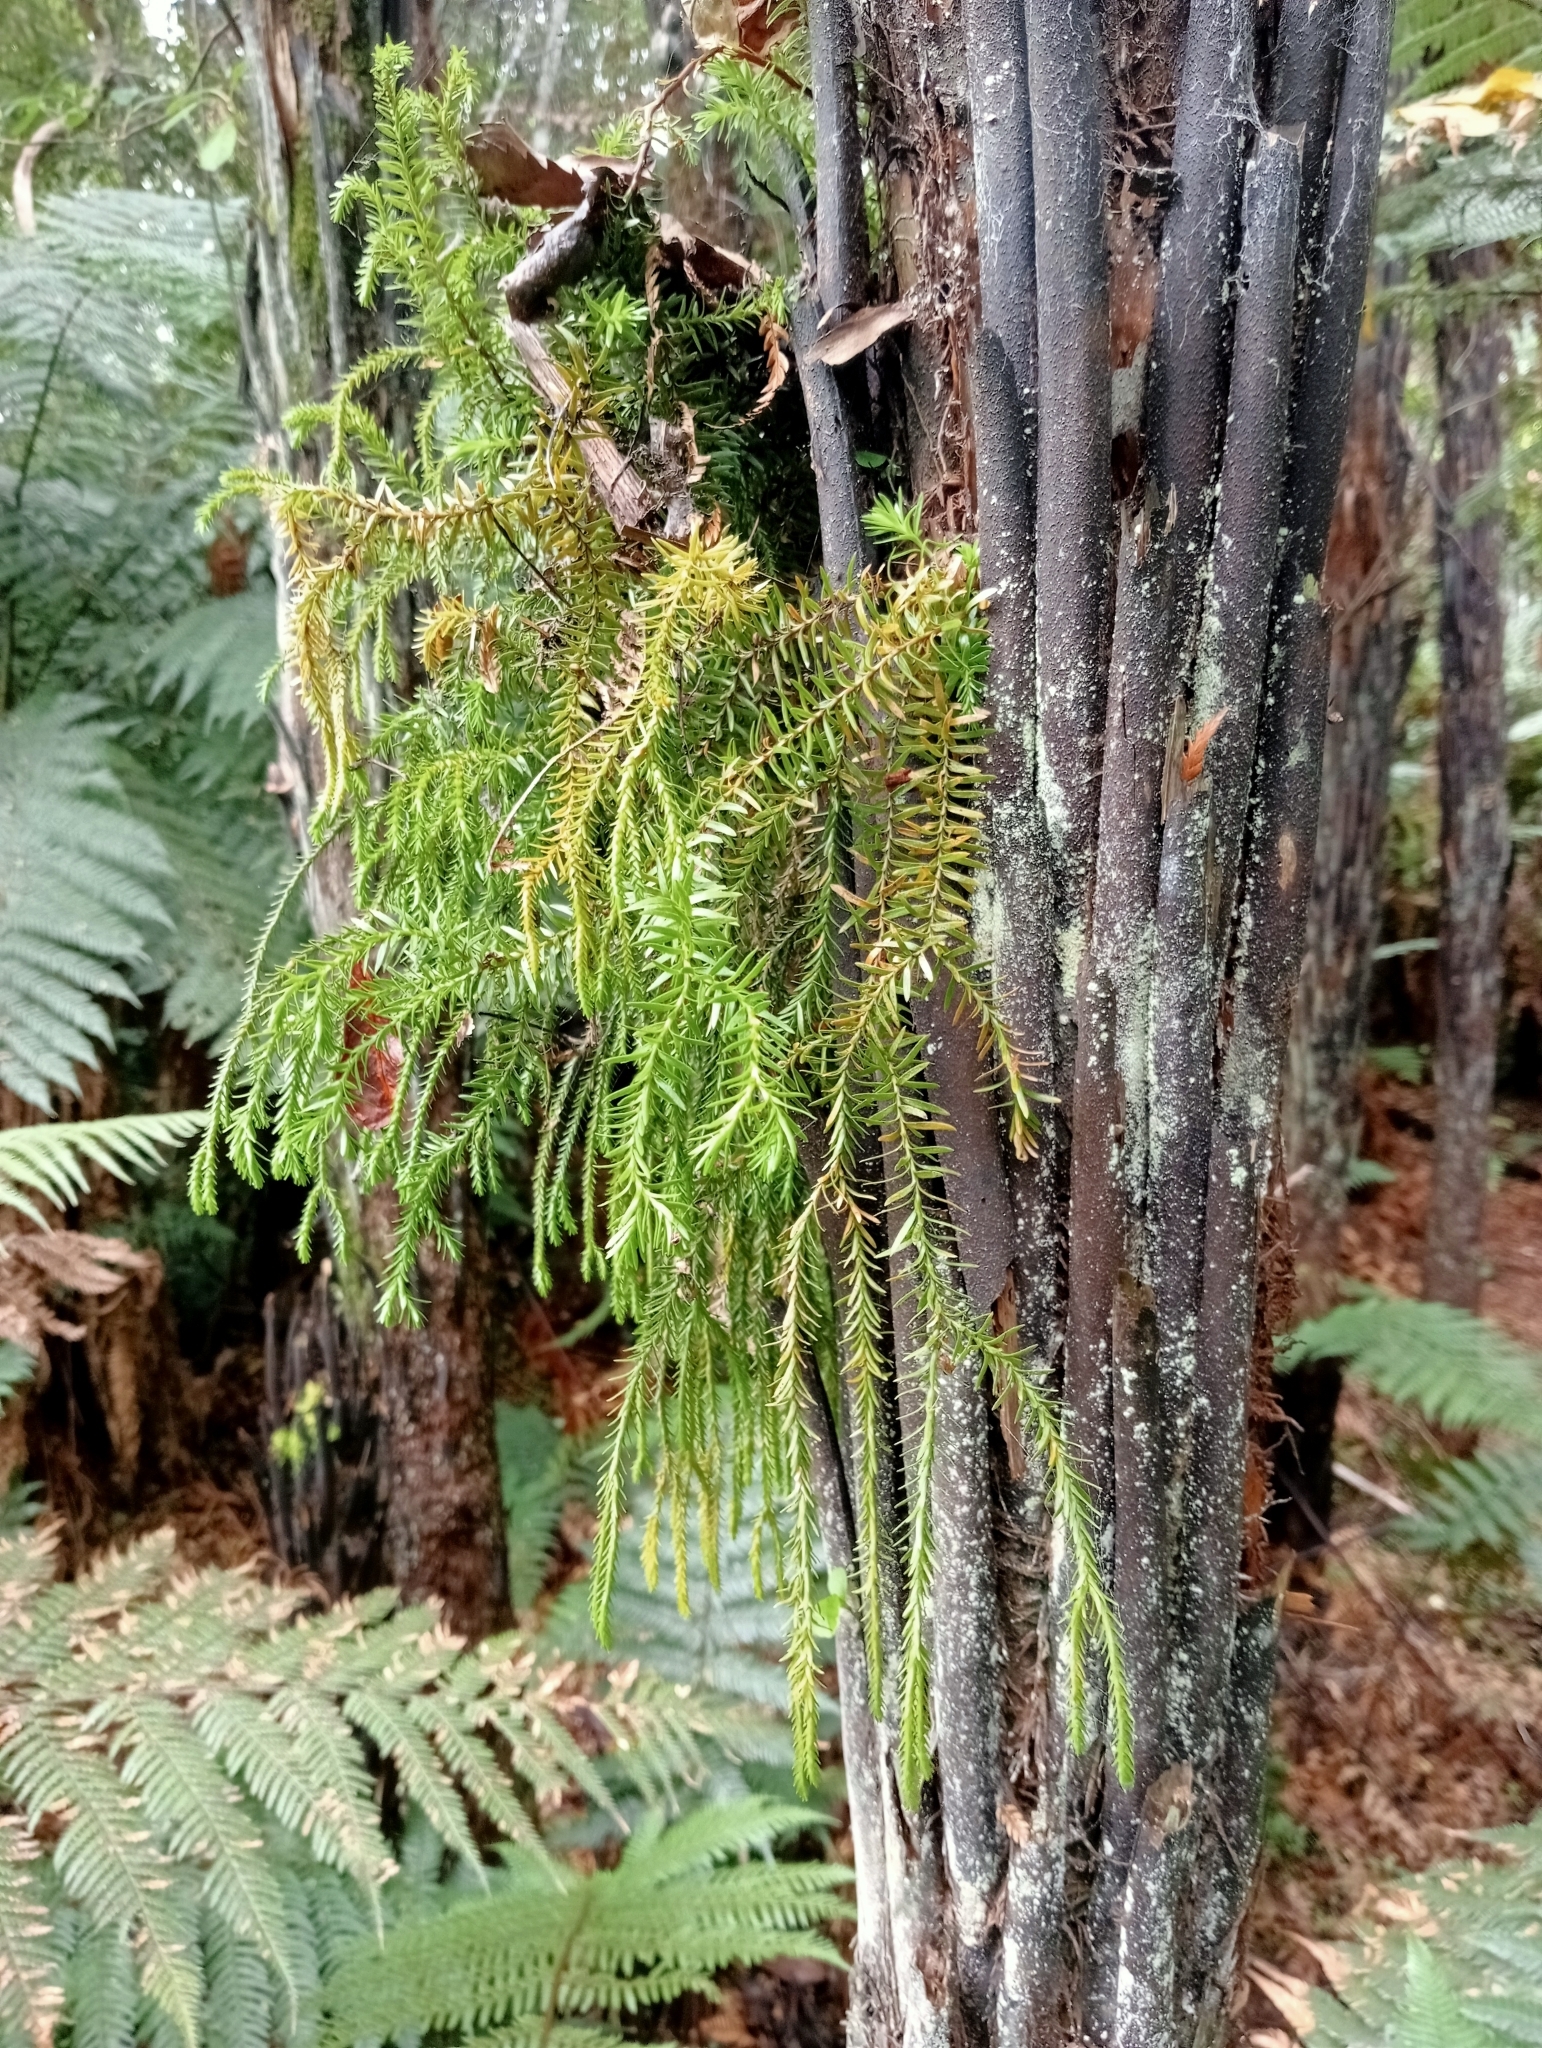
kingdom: Plantae
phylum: Tracheophyta
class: Lycopodiopsida
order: Lycopodiales
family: Lycopodiaceae
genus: Phlegmariurus
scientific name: Phlegmariurus varius
